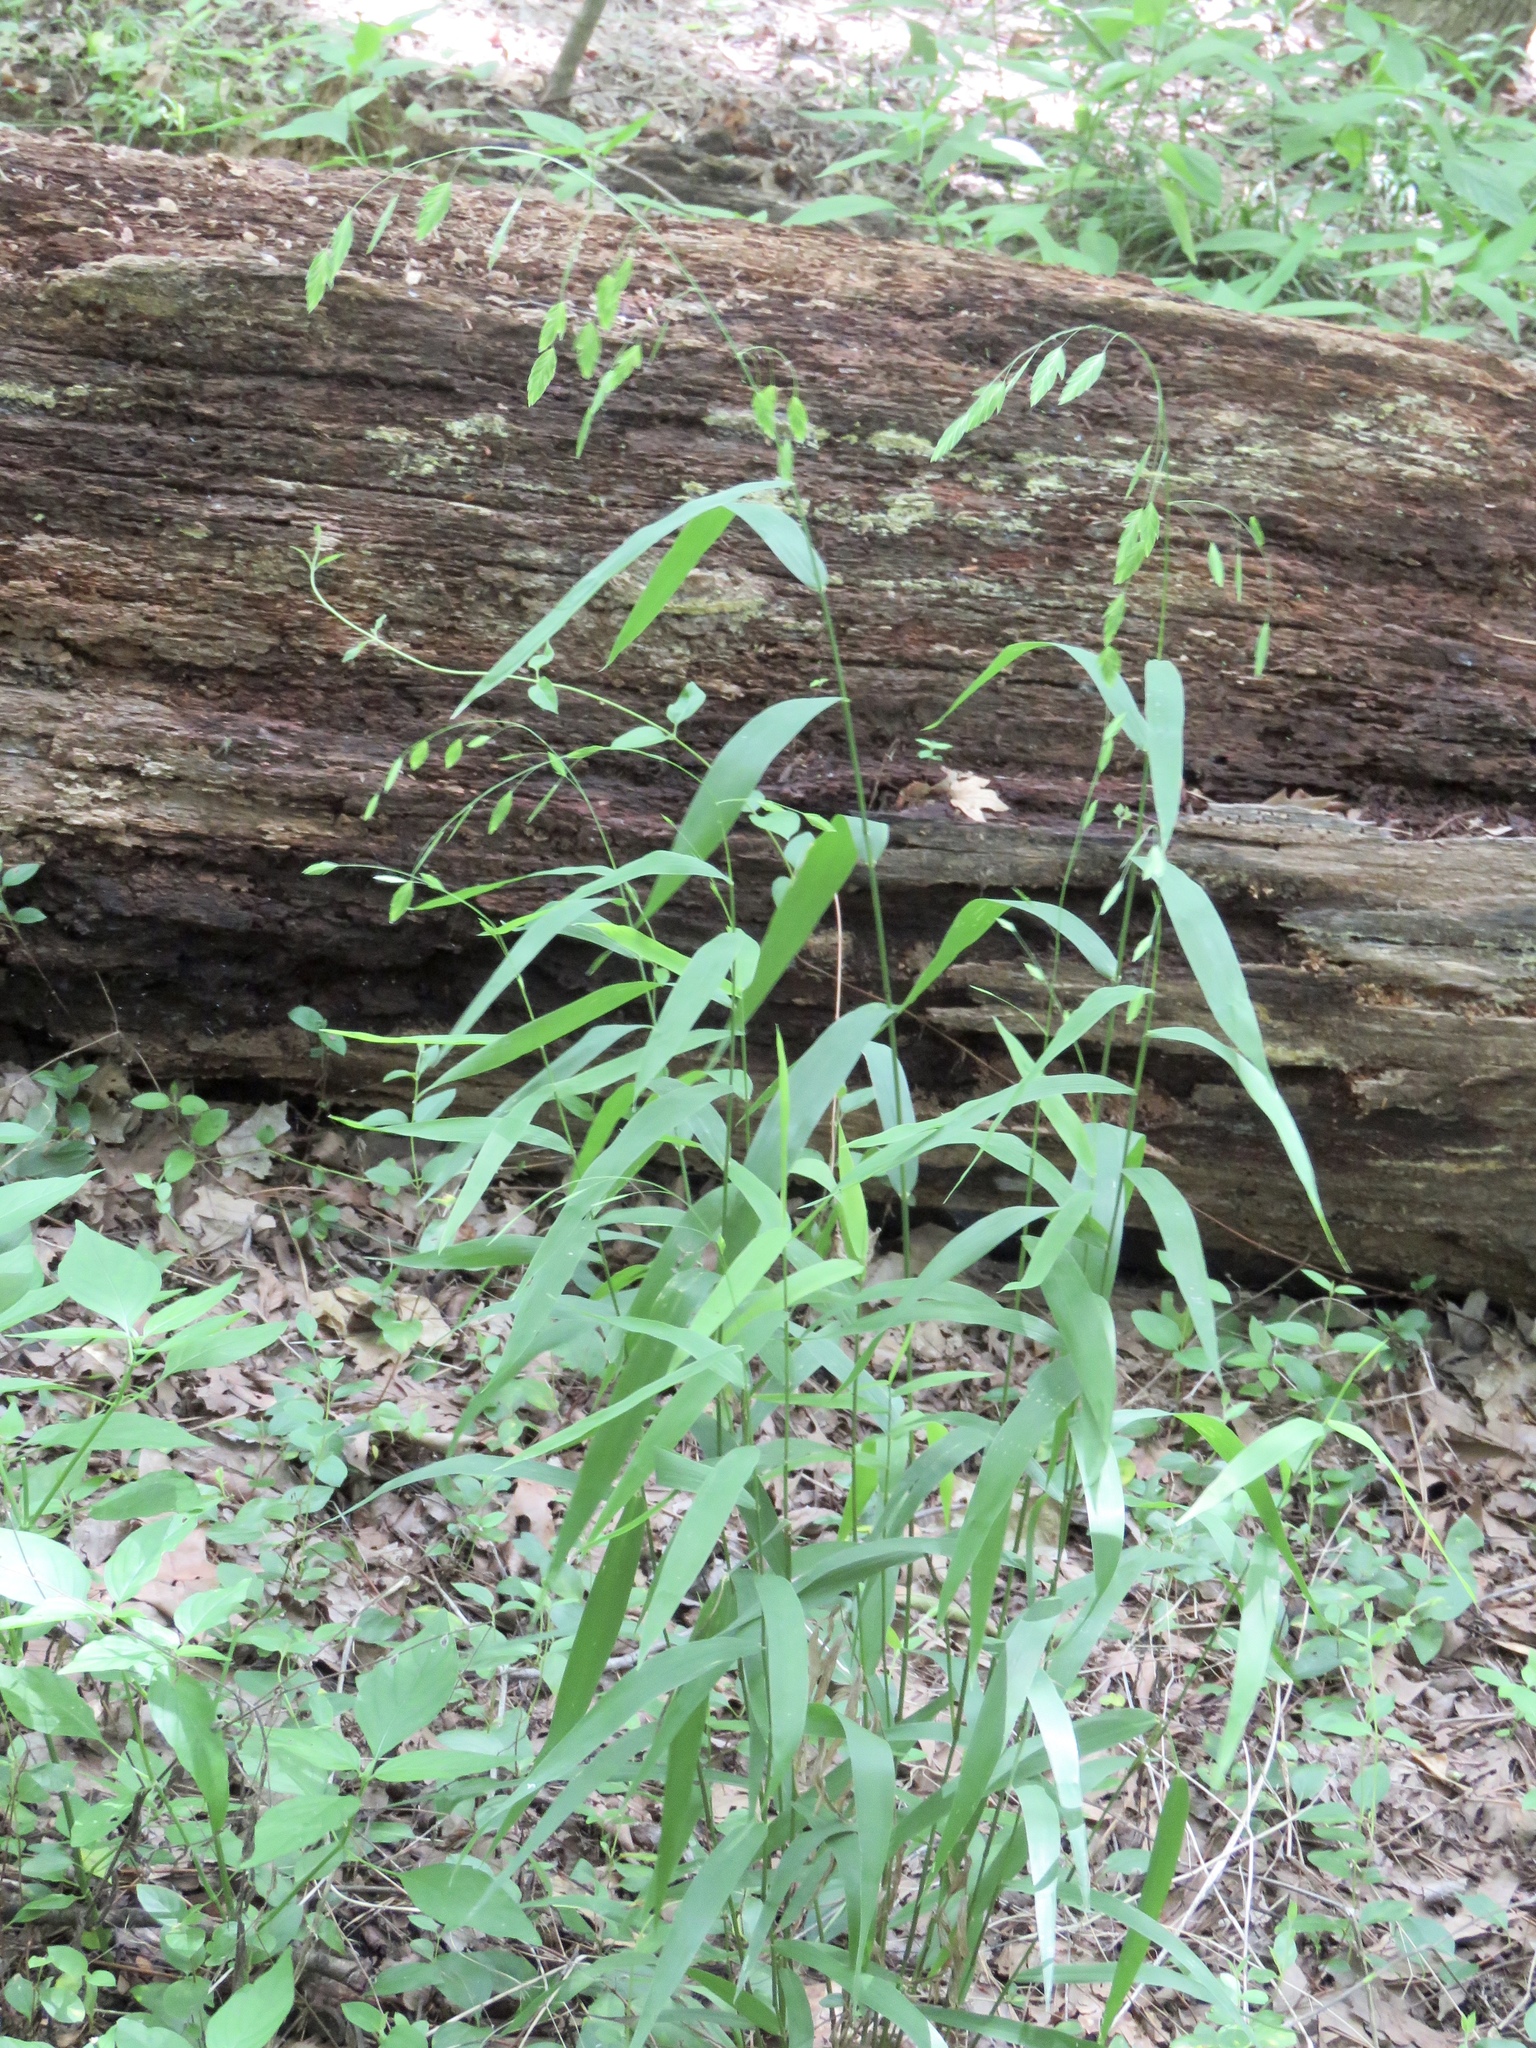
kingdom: Plantae
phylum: Tracheophyta
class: Liliopsida
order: Poales
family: Poaceae
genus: Chasmanthium
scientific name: Chasmanthium latifolium
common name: Broad-leaved chasmanthium
